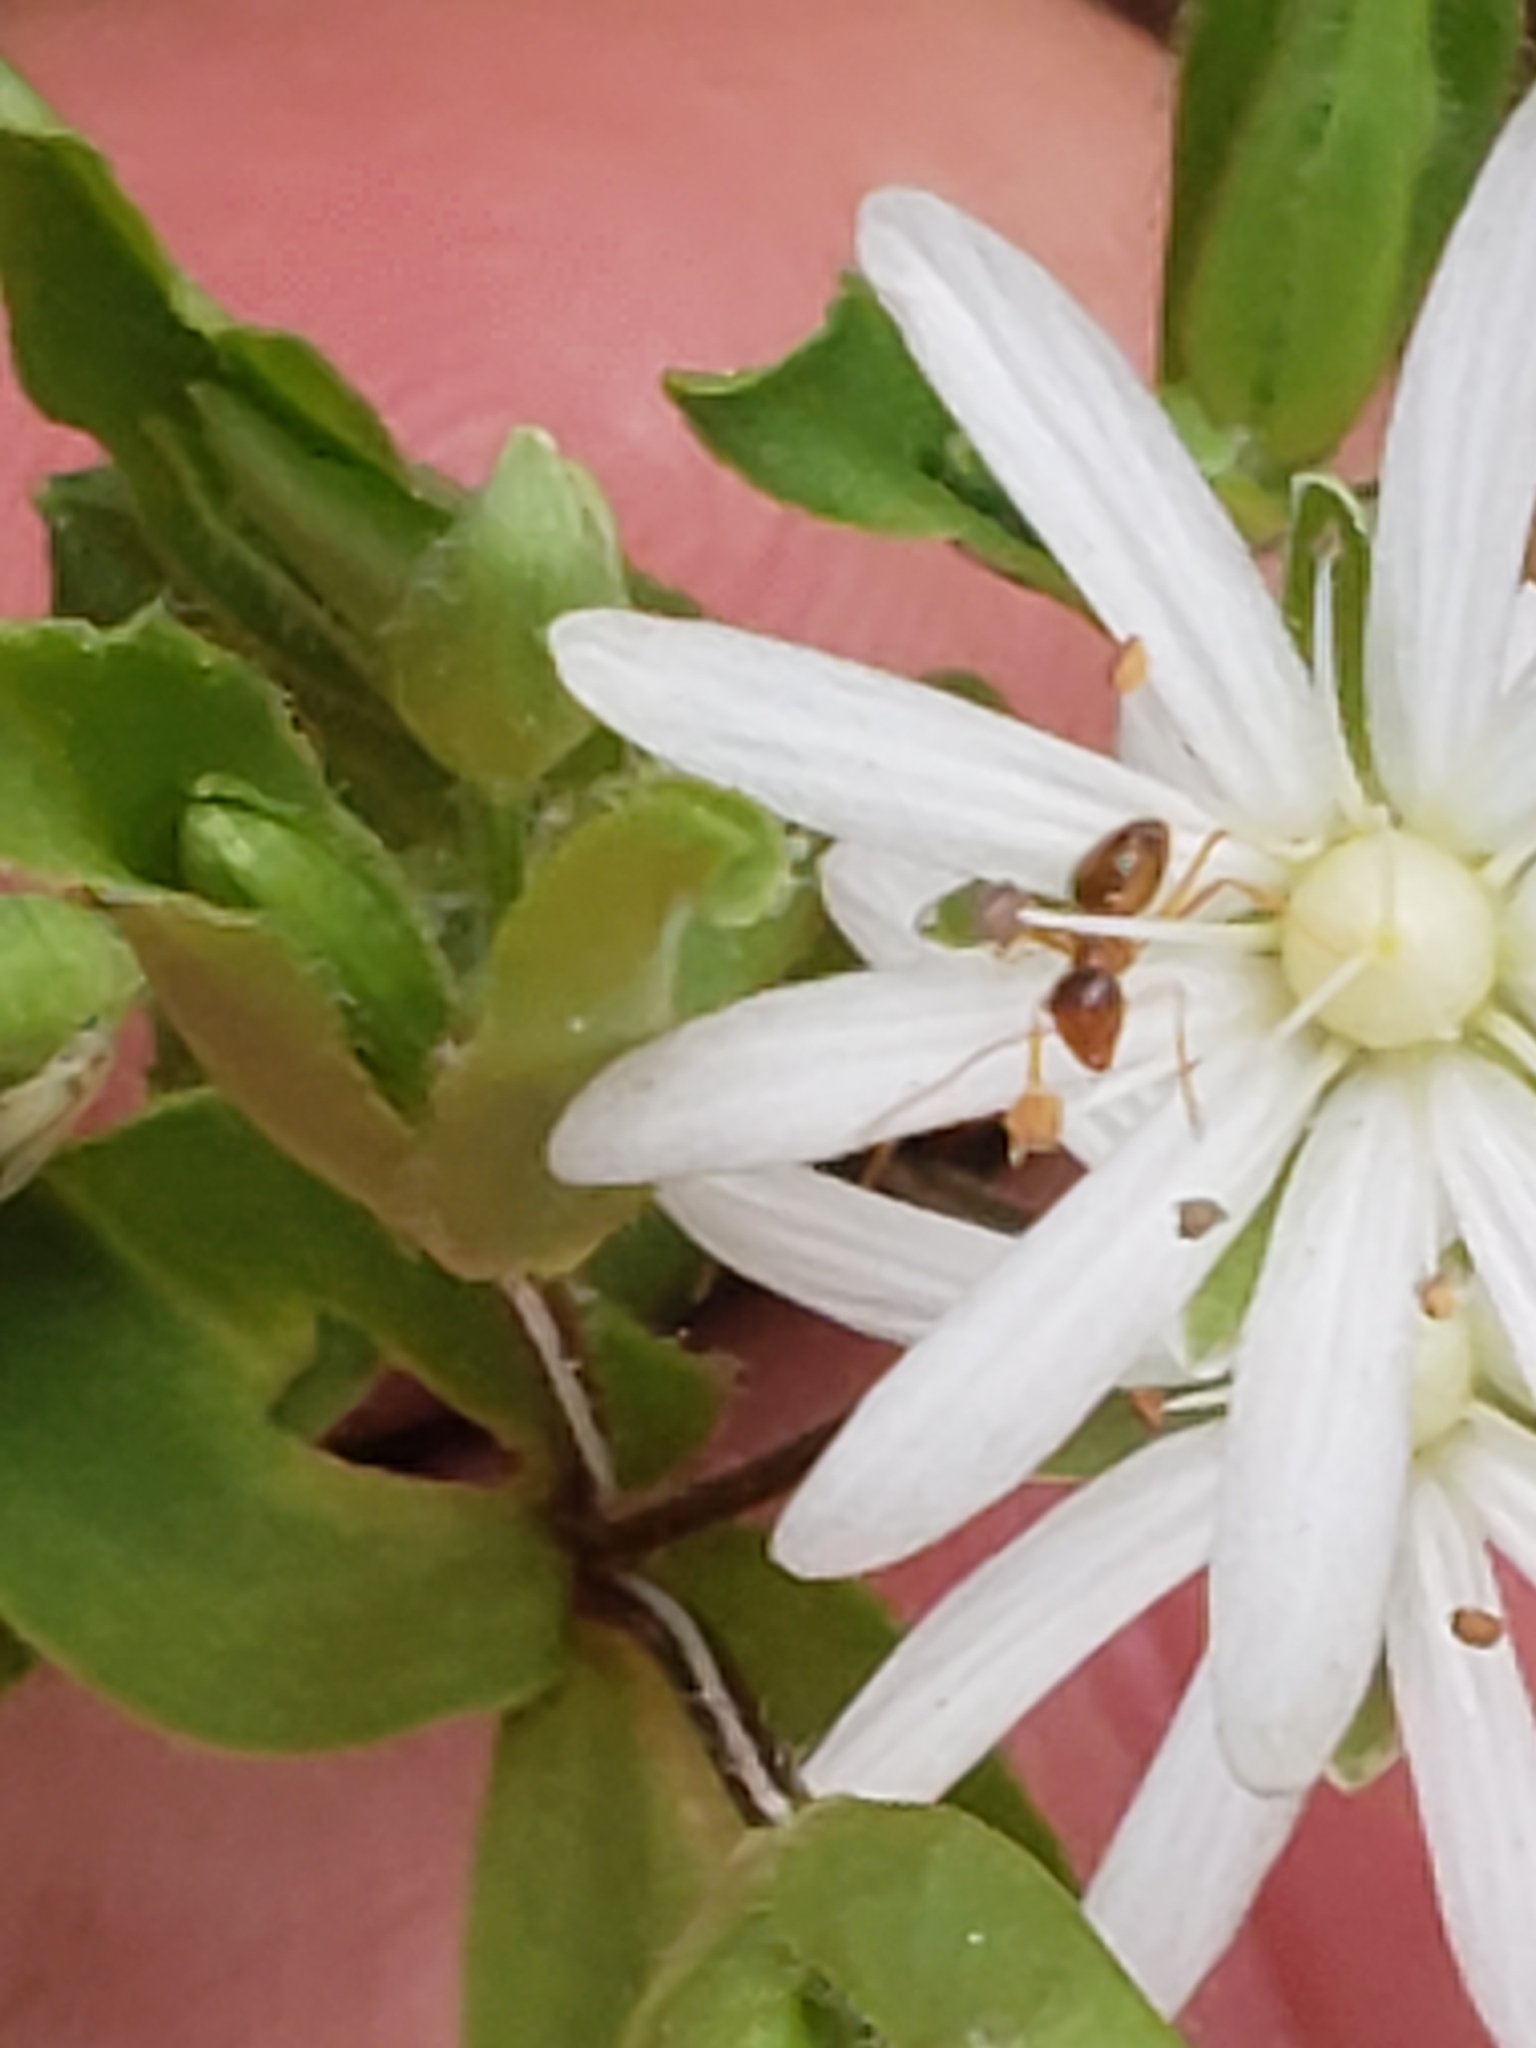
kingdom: Plantae
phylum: Tracheophyta
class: Magnoliopsida
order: Caryophyllales
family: Caryophyllaceae
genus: Stellaria
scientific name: Stellaria pubera
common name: Star chickweed
